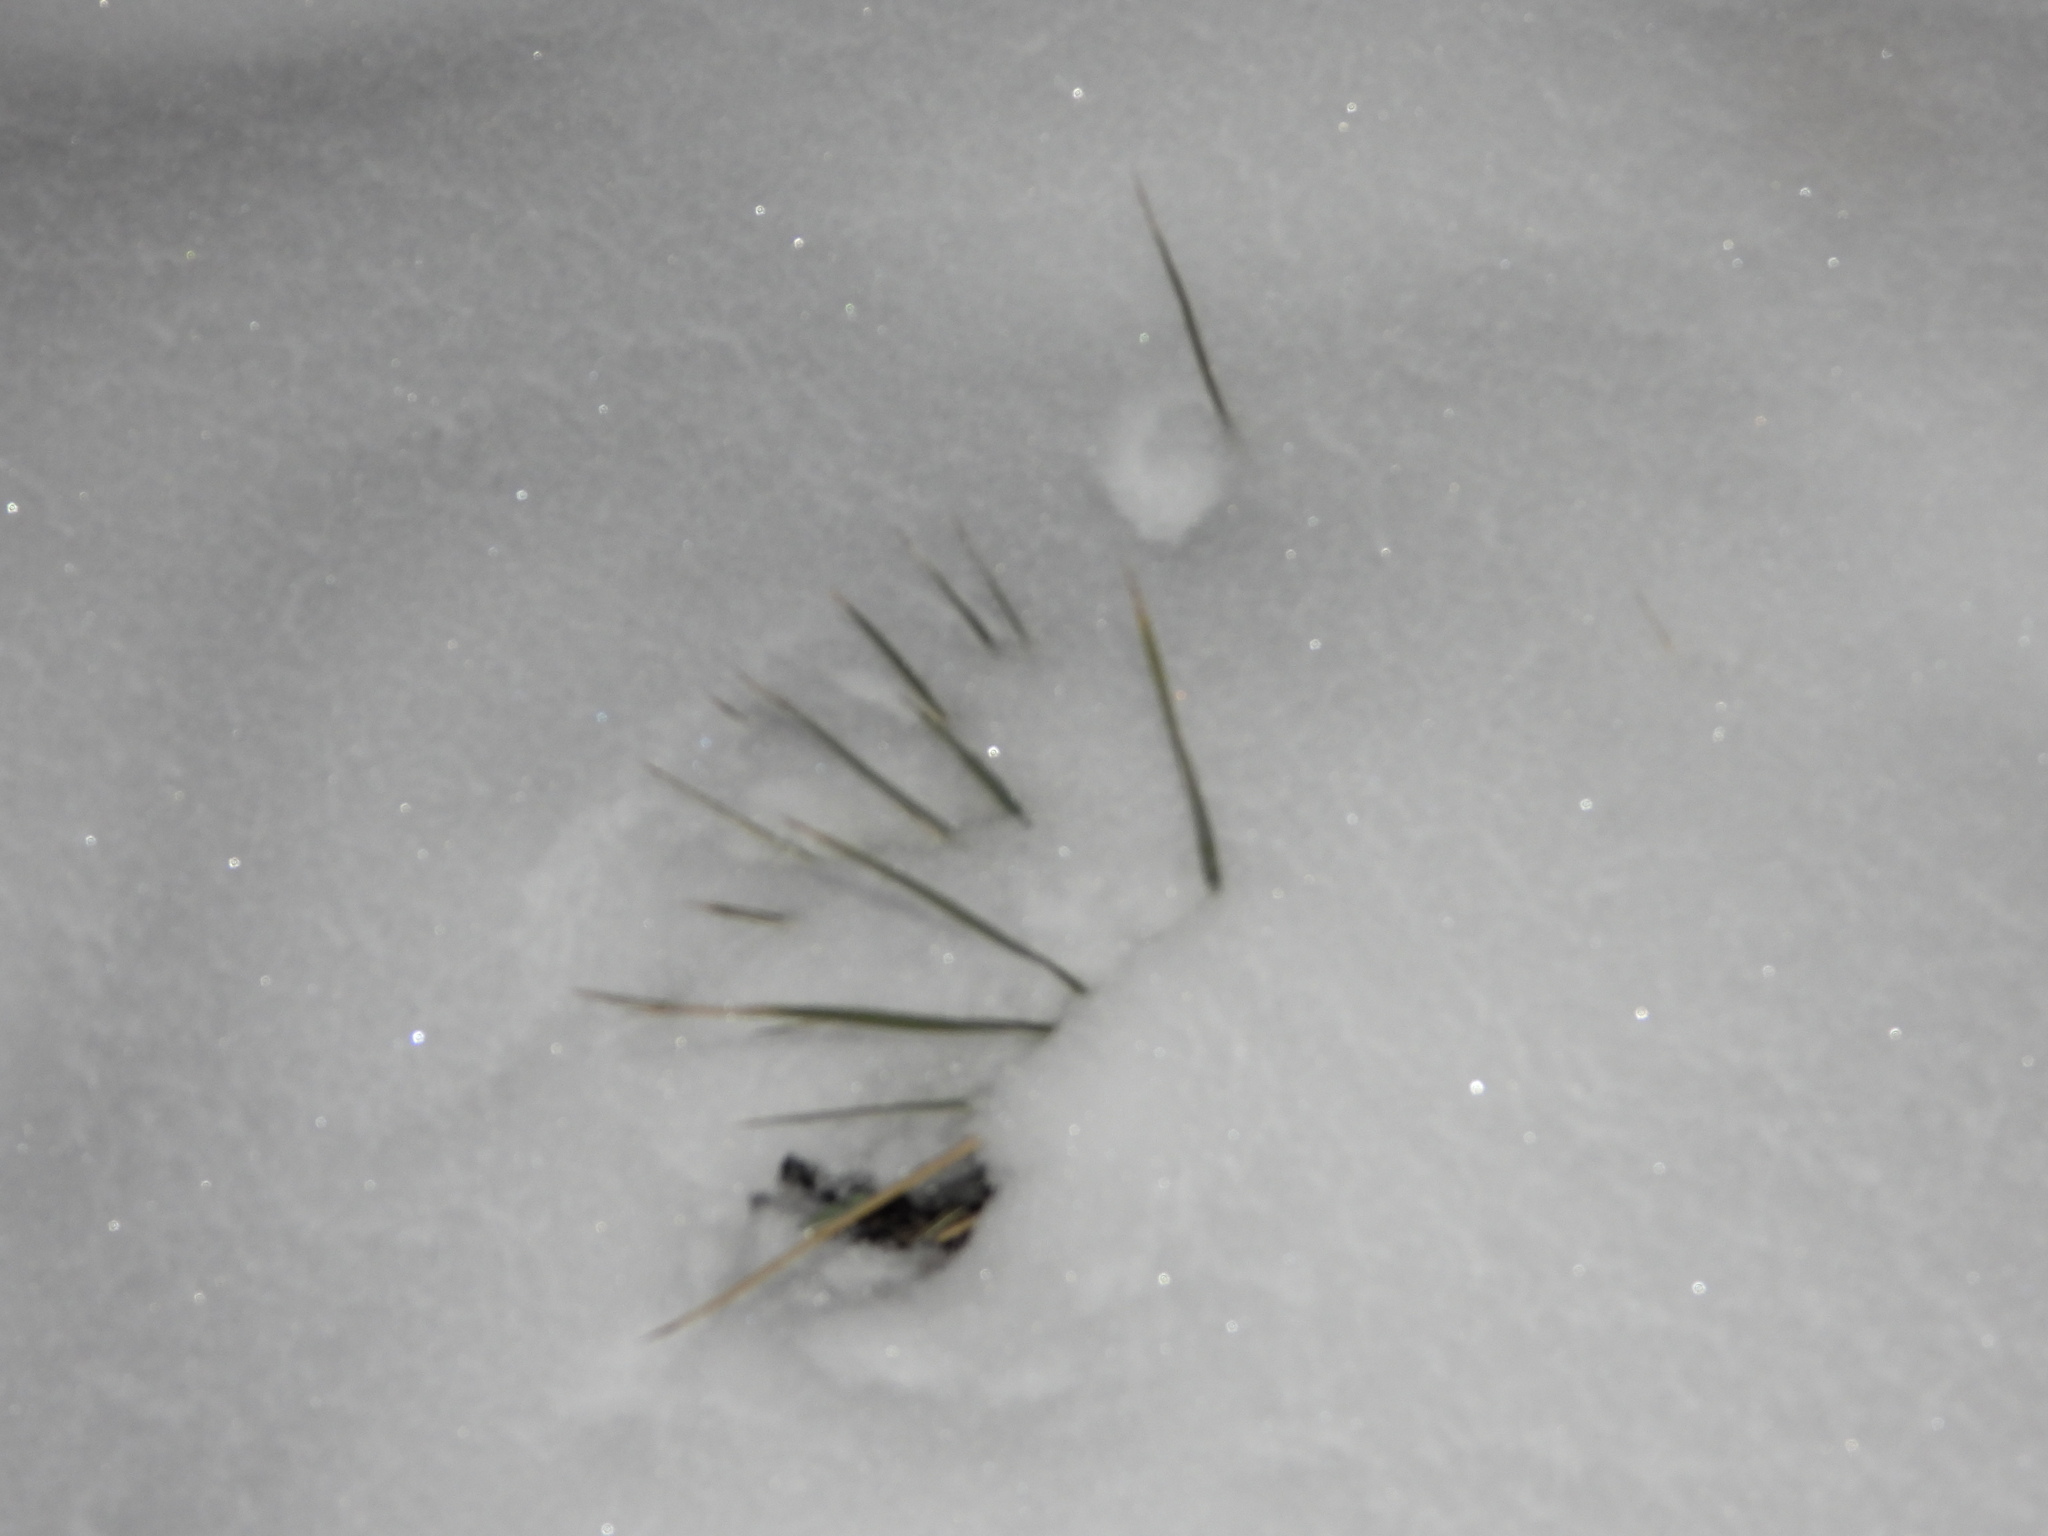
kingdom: Plantae
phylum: Tracheophyta
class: Liliopsida
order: Asparagales
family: Asparagaceae
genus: Yucca
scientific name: Yucca glauca
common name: Great plains yucca
